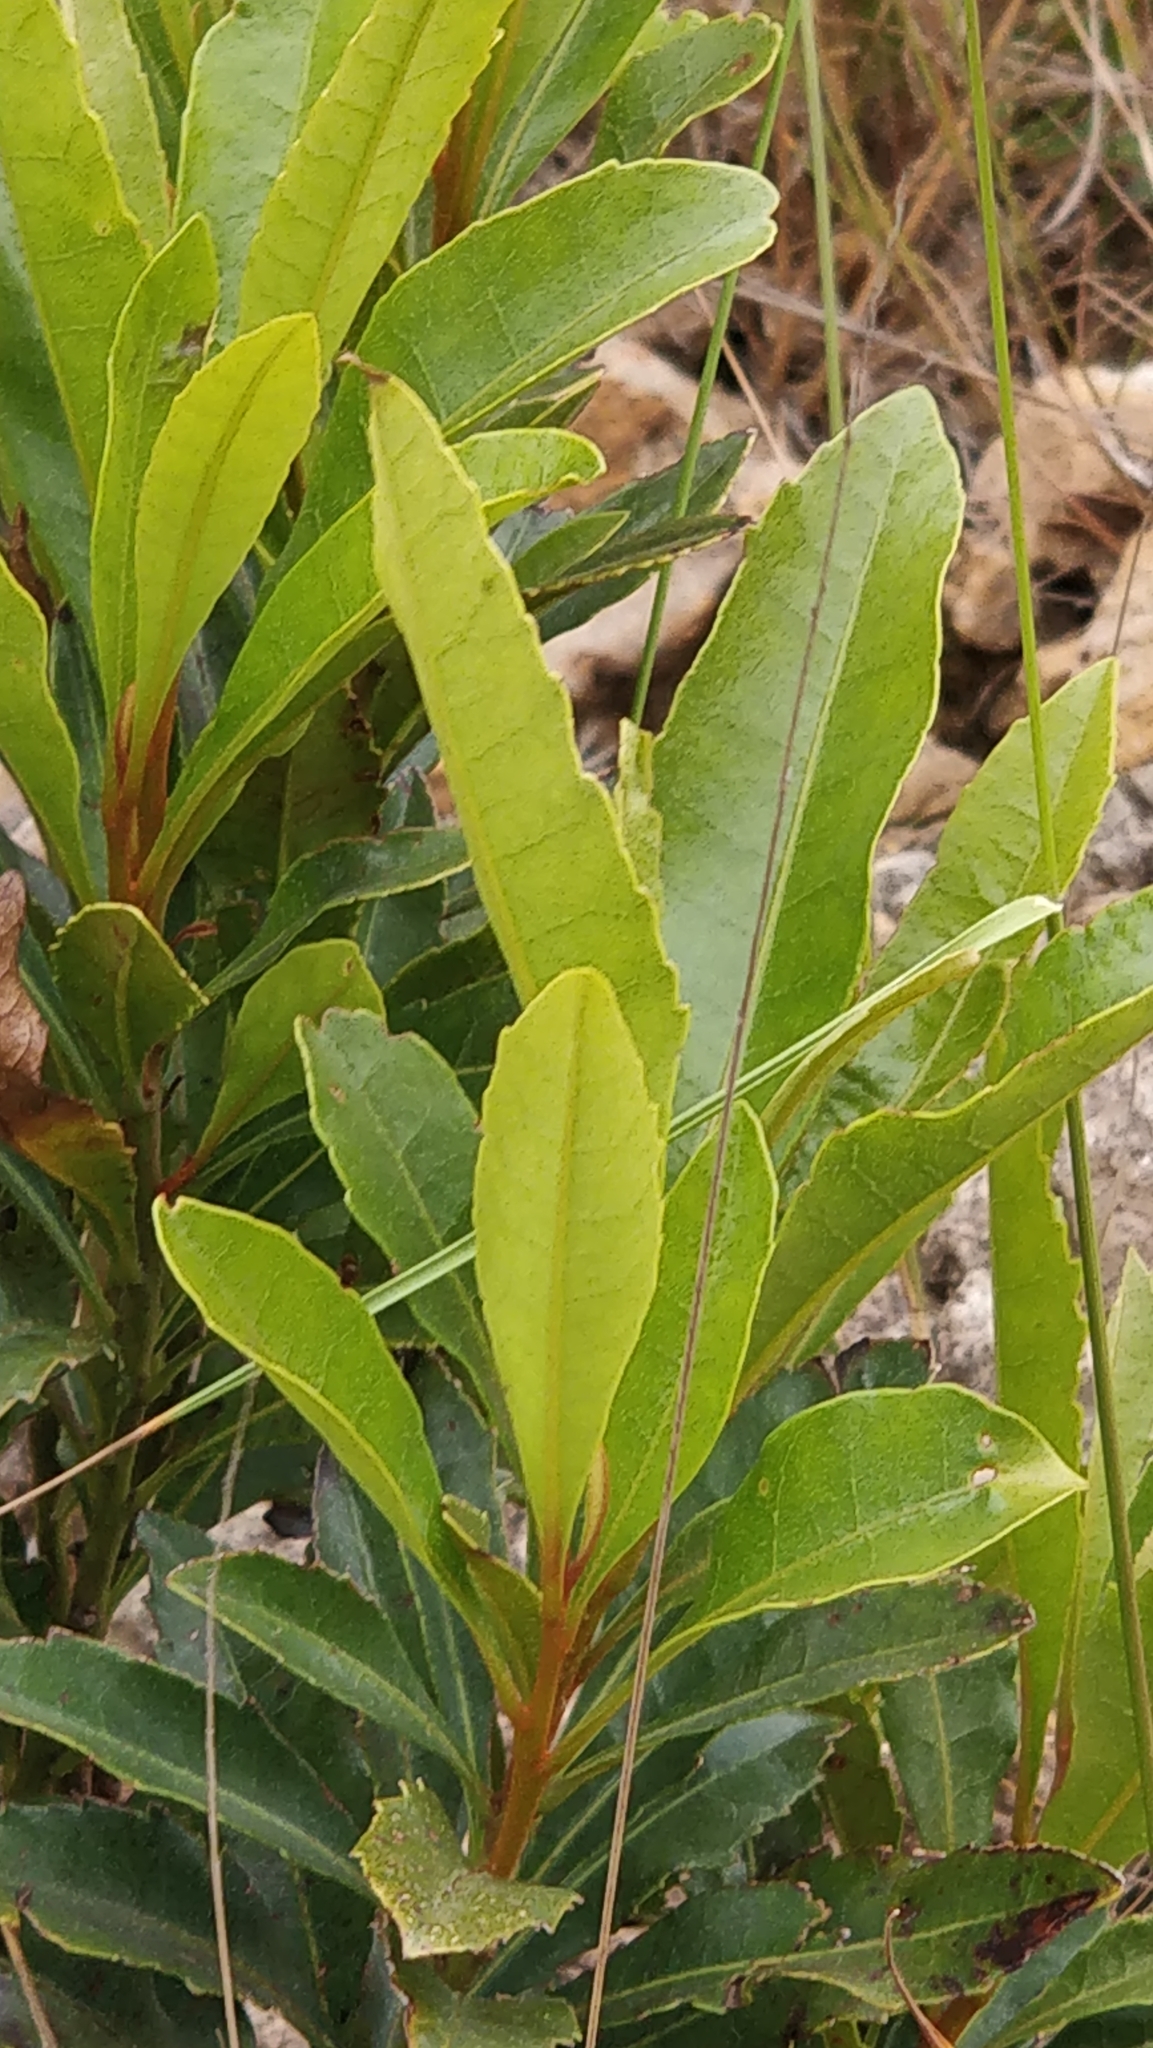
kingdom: Plantae
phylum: Tracheophyta
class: Magnoliopsida
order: Fagales
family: Myricaceae
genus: Morella
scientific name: Morella faya
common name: Firetree
